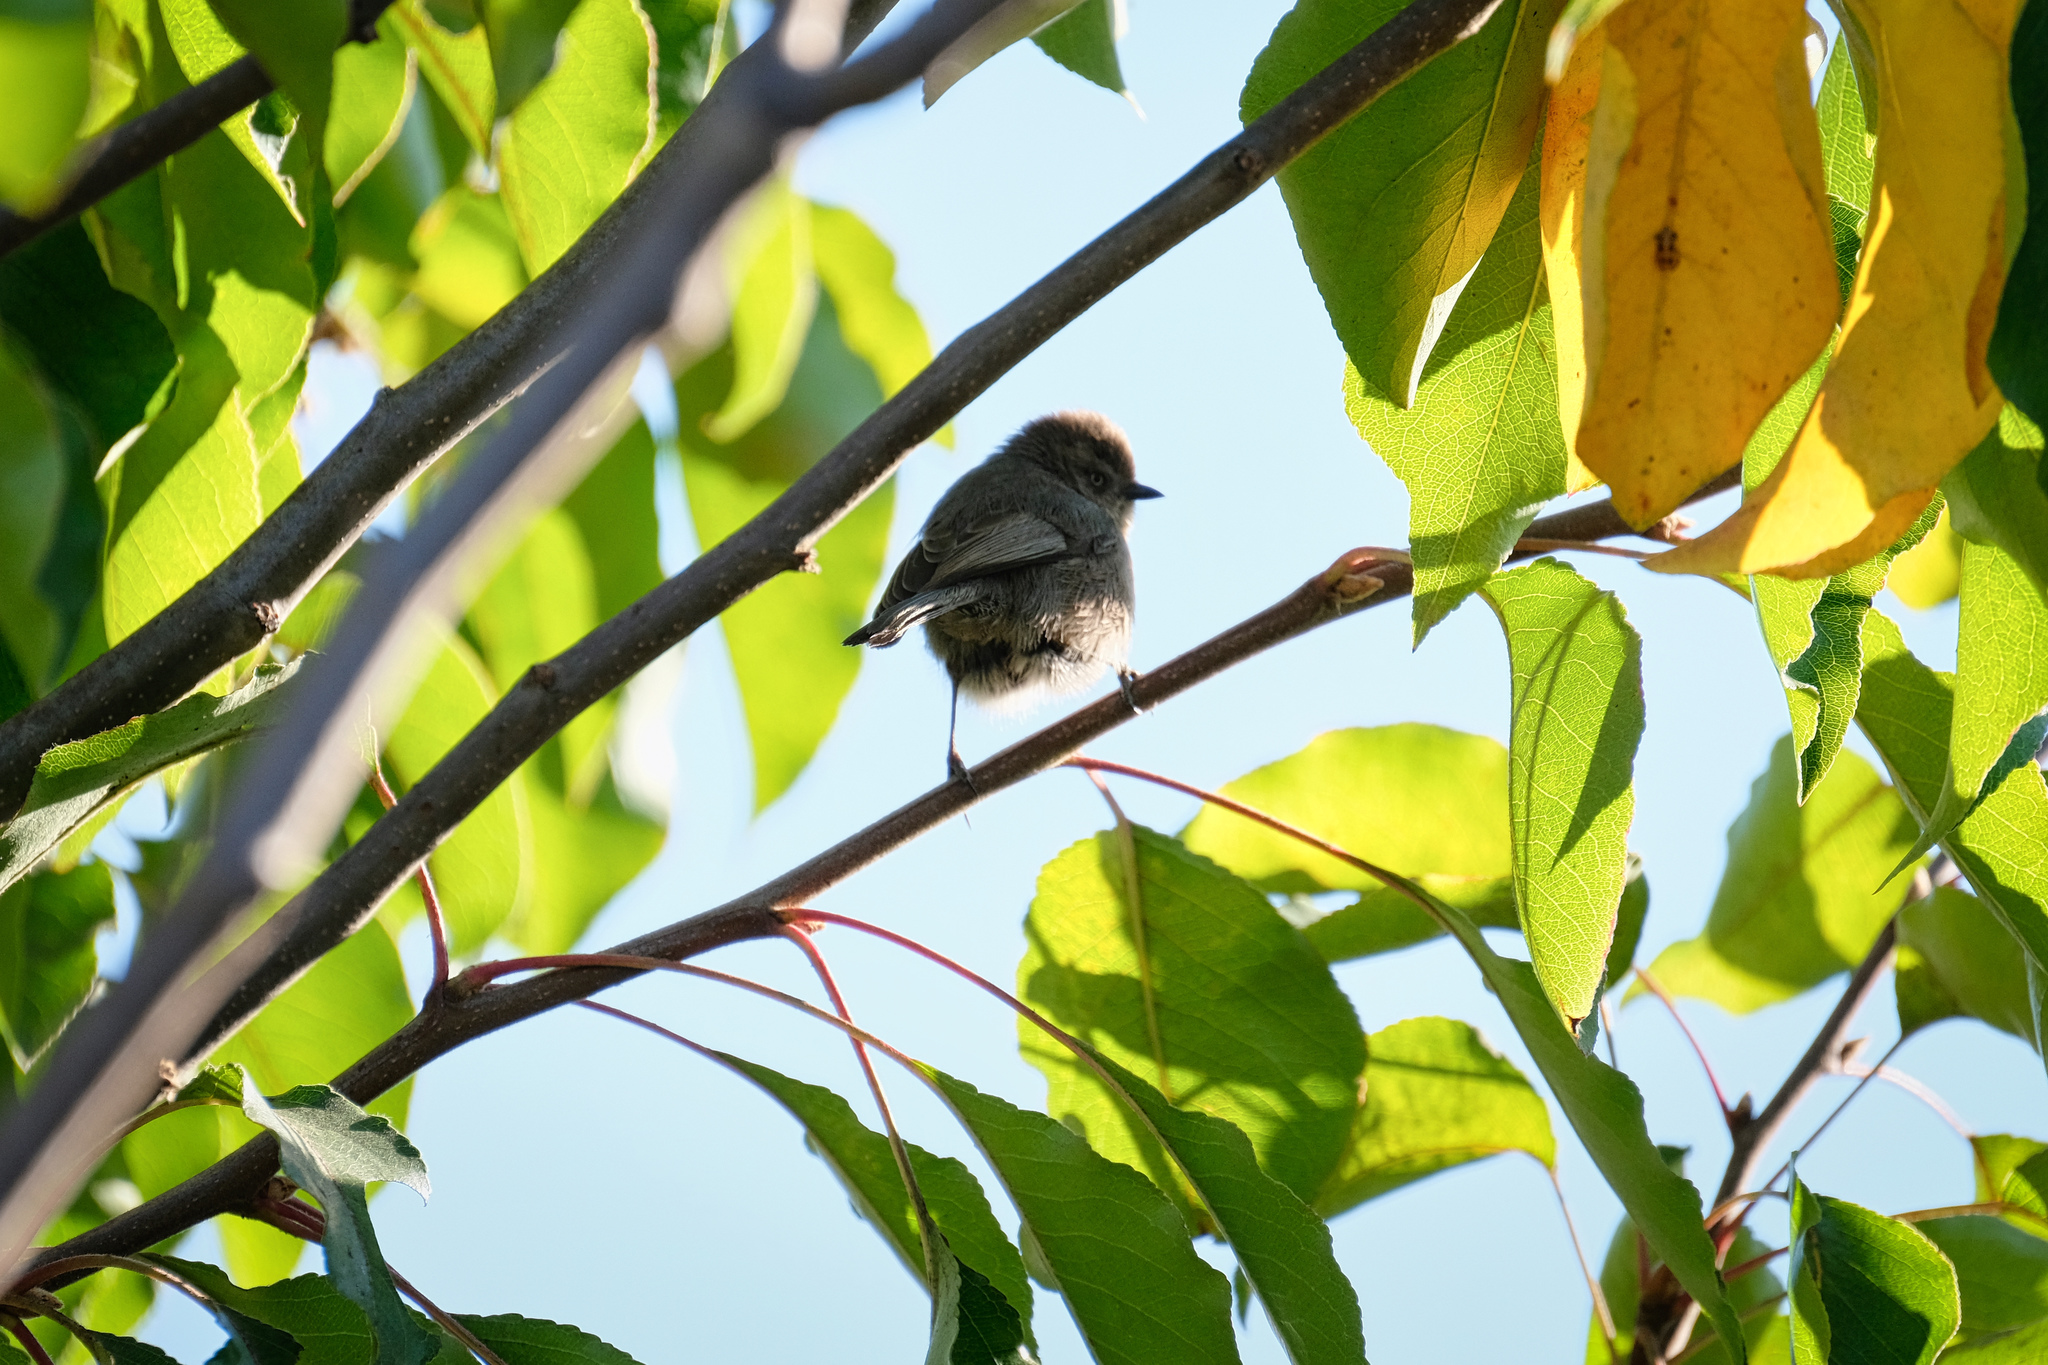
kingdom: Animalia
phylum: Chordata
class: Aves
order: Passeriformes
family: Aegithalidae
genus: Psaltriparus
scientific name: Psaltriparus minimus
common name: American bushtit
